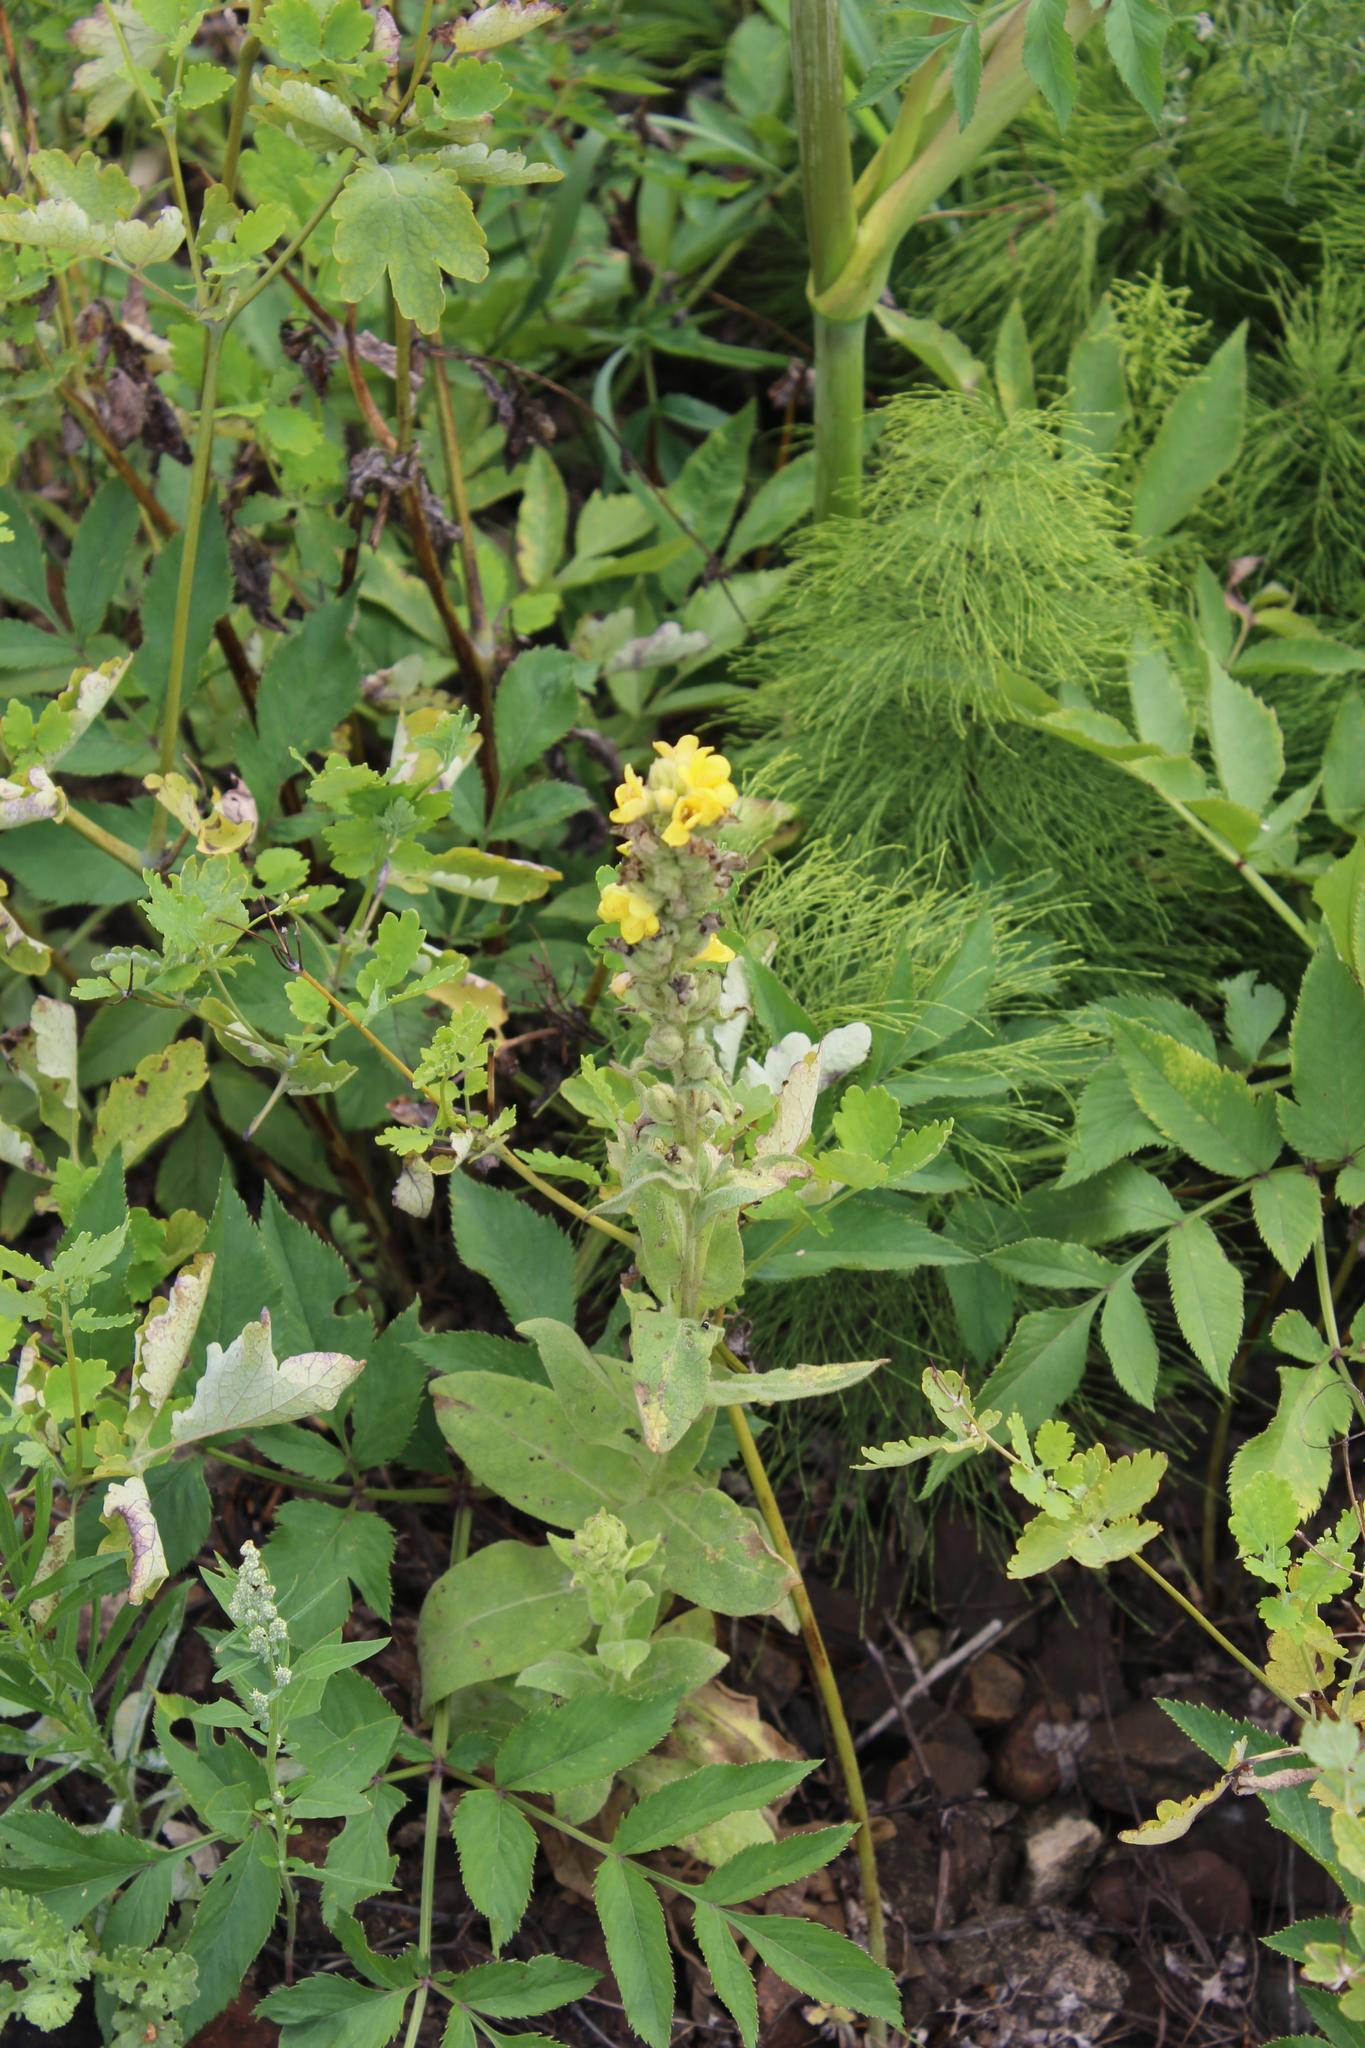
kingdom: Plantae
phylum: Tracheophyta
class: Magnoliopsida
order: Lamiales
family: Scrophulariaceae
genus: Verbascum
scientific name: Verbascum thapsus
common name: Common mullein
